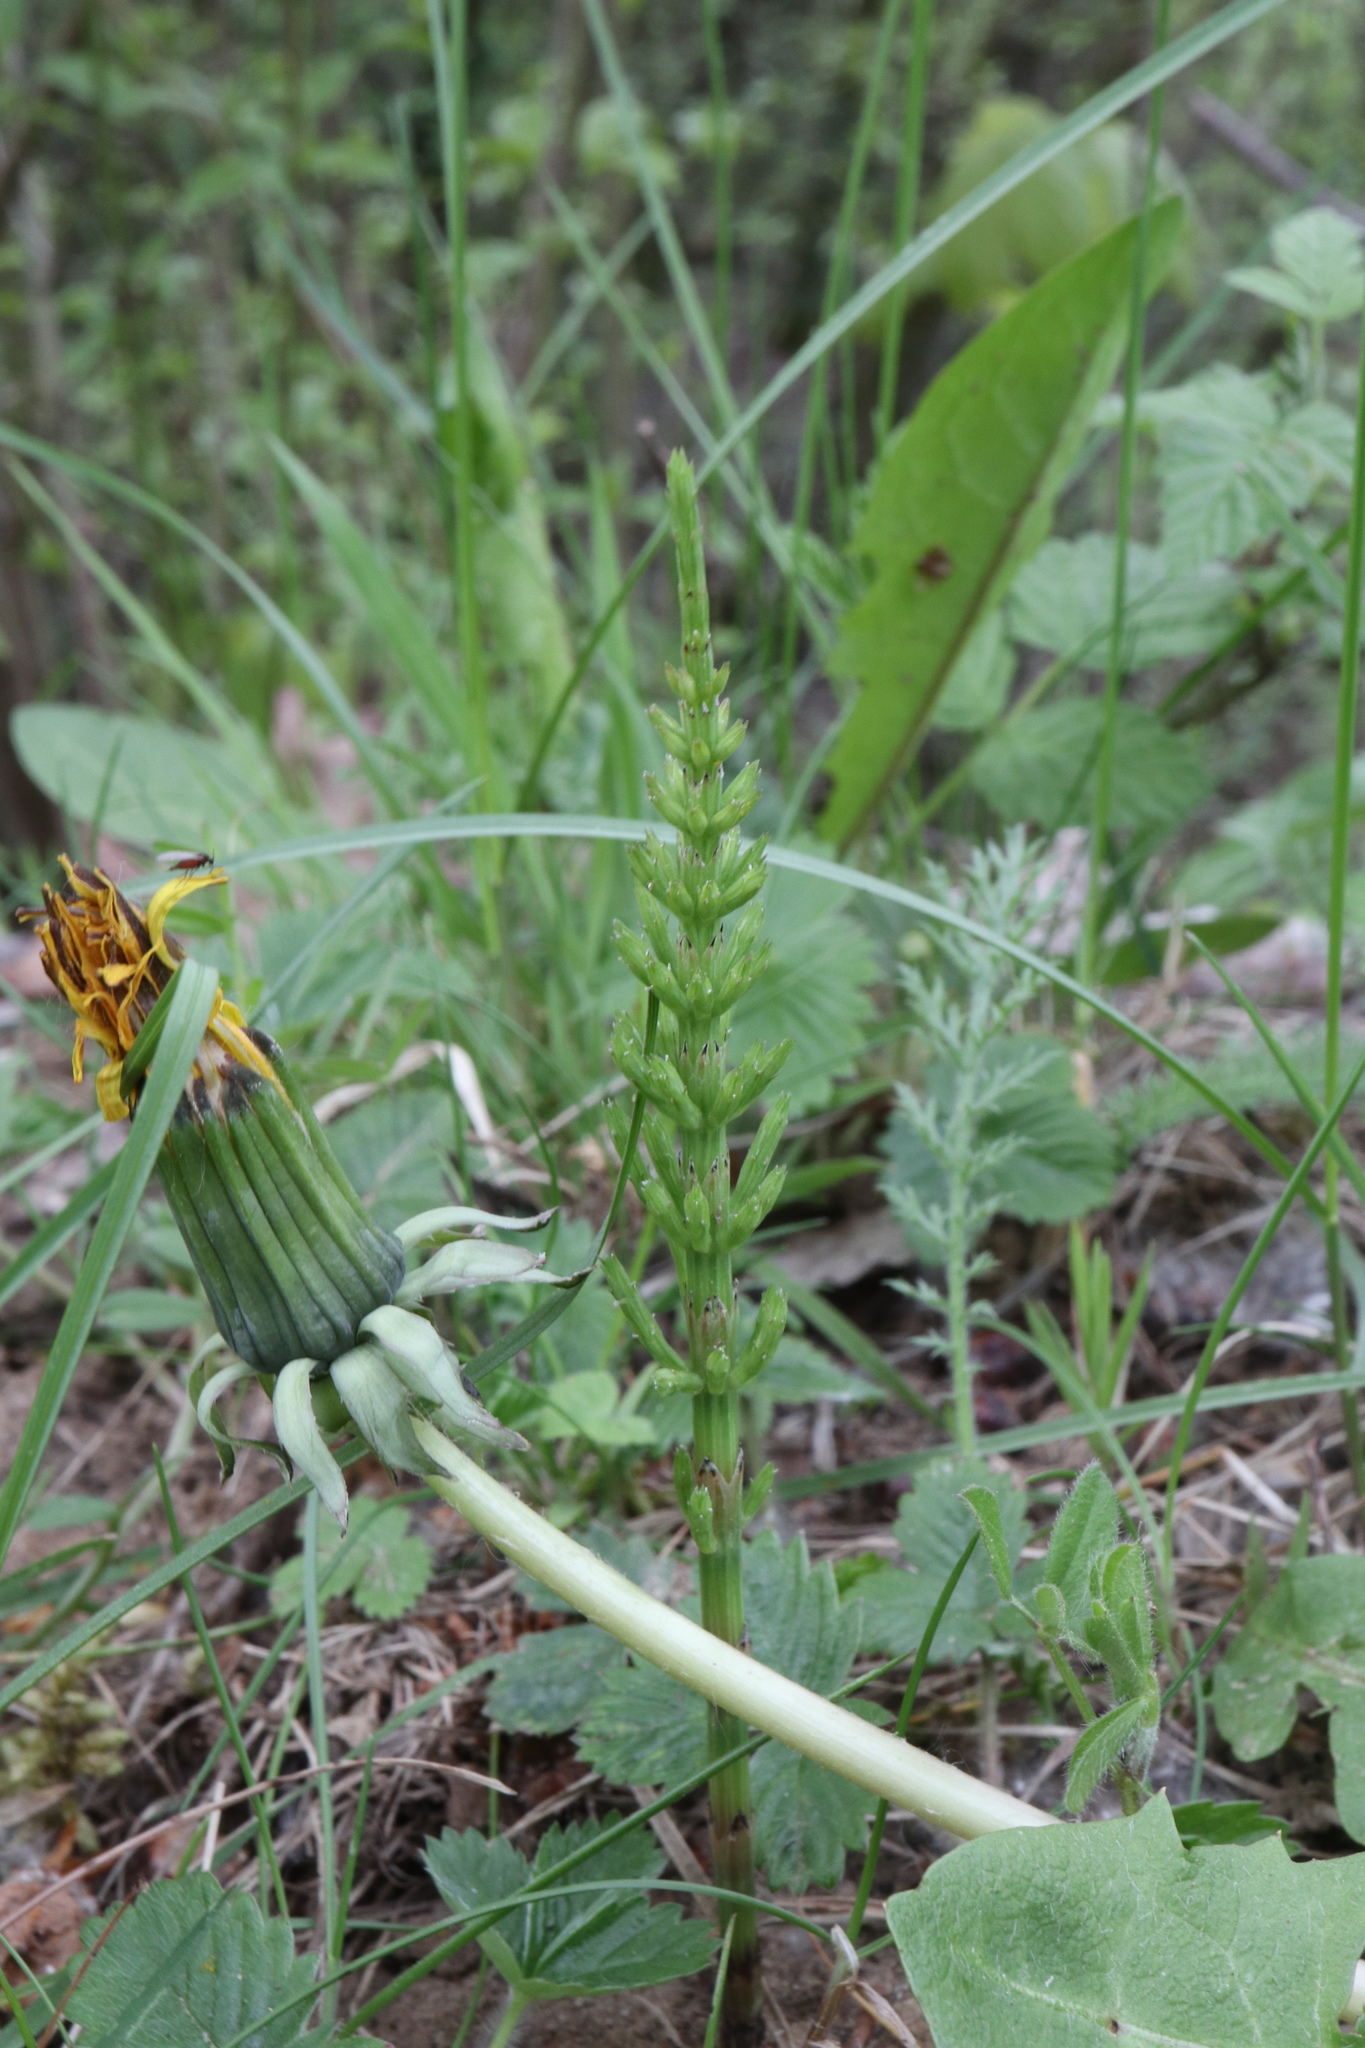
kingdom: Plantae
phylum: Tracheophyta
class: Polypodiopsida
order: Equisetales
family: Equisetaceae
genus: Equisetum
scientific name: Equisetum arvense
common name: Field horsetail
